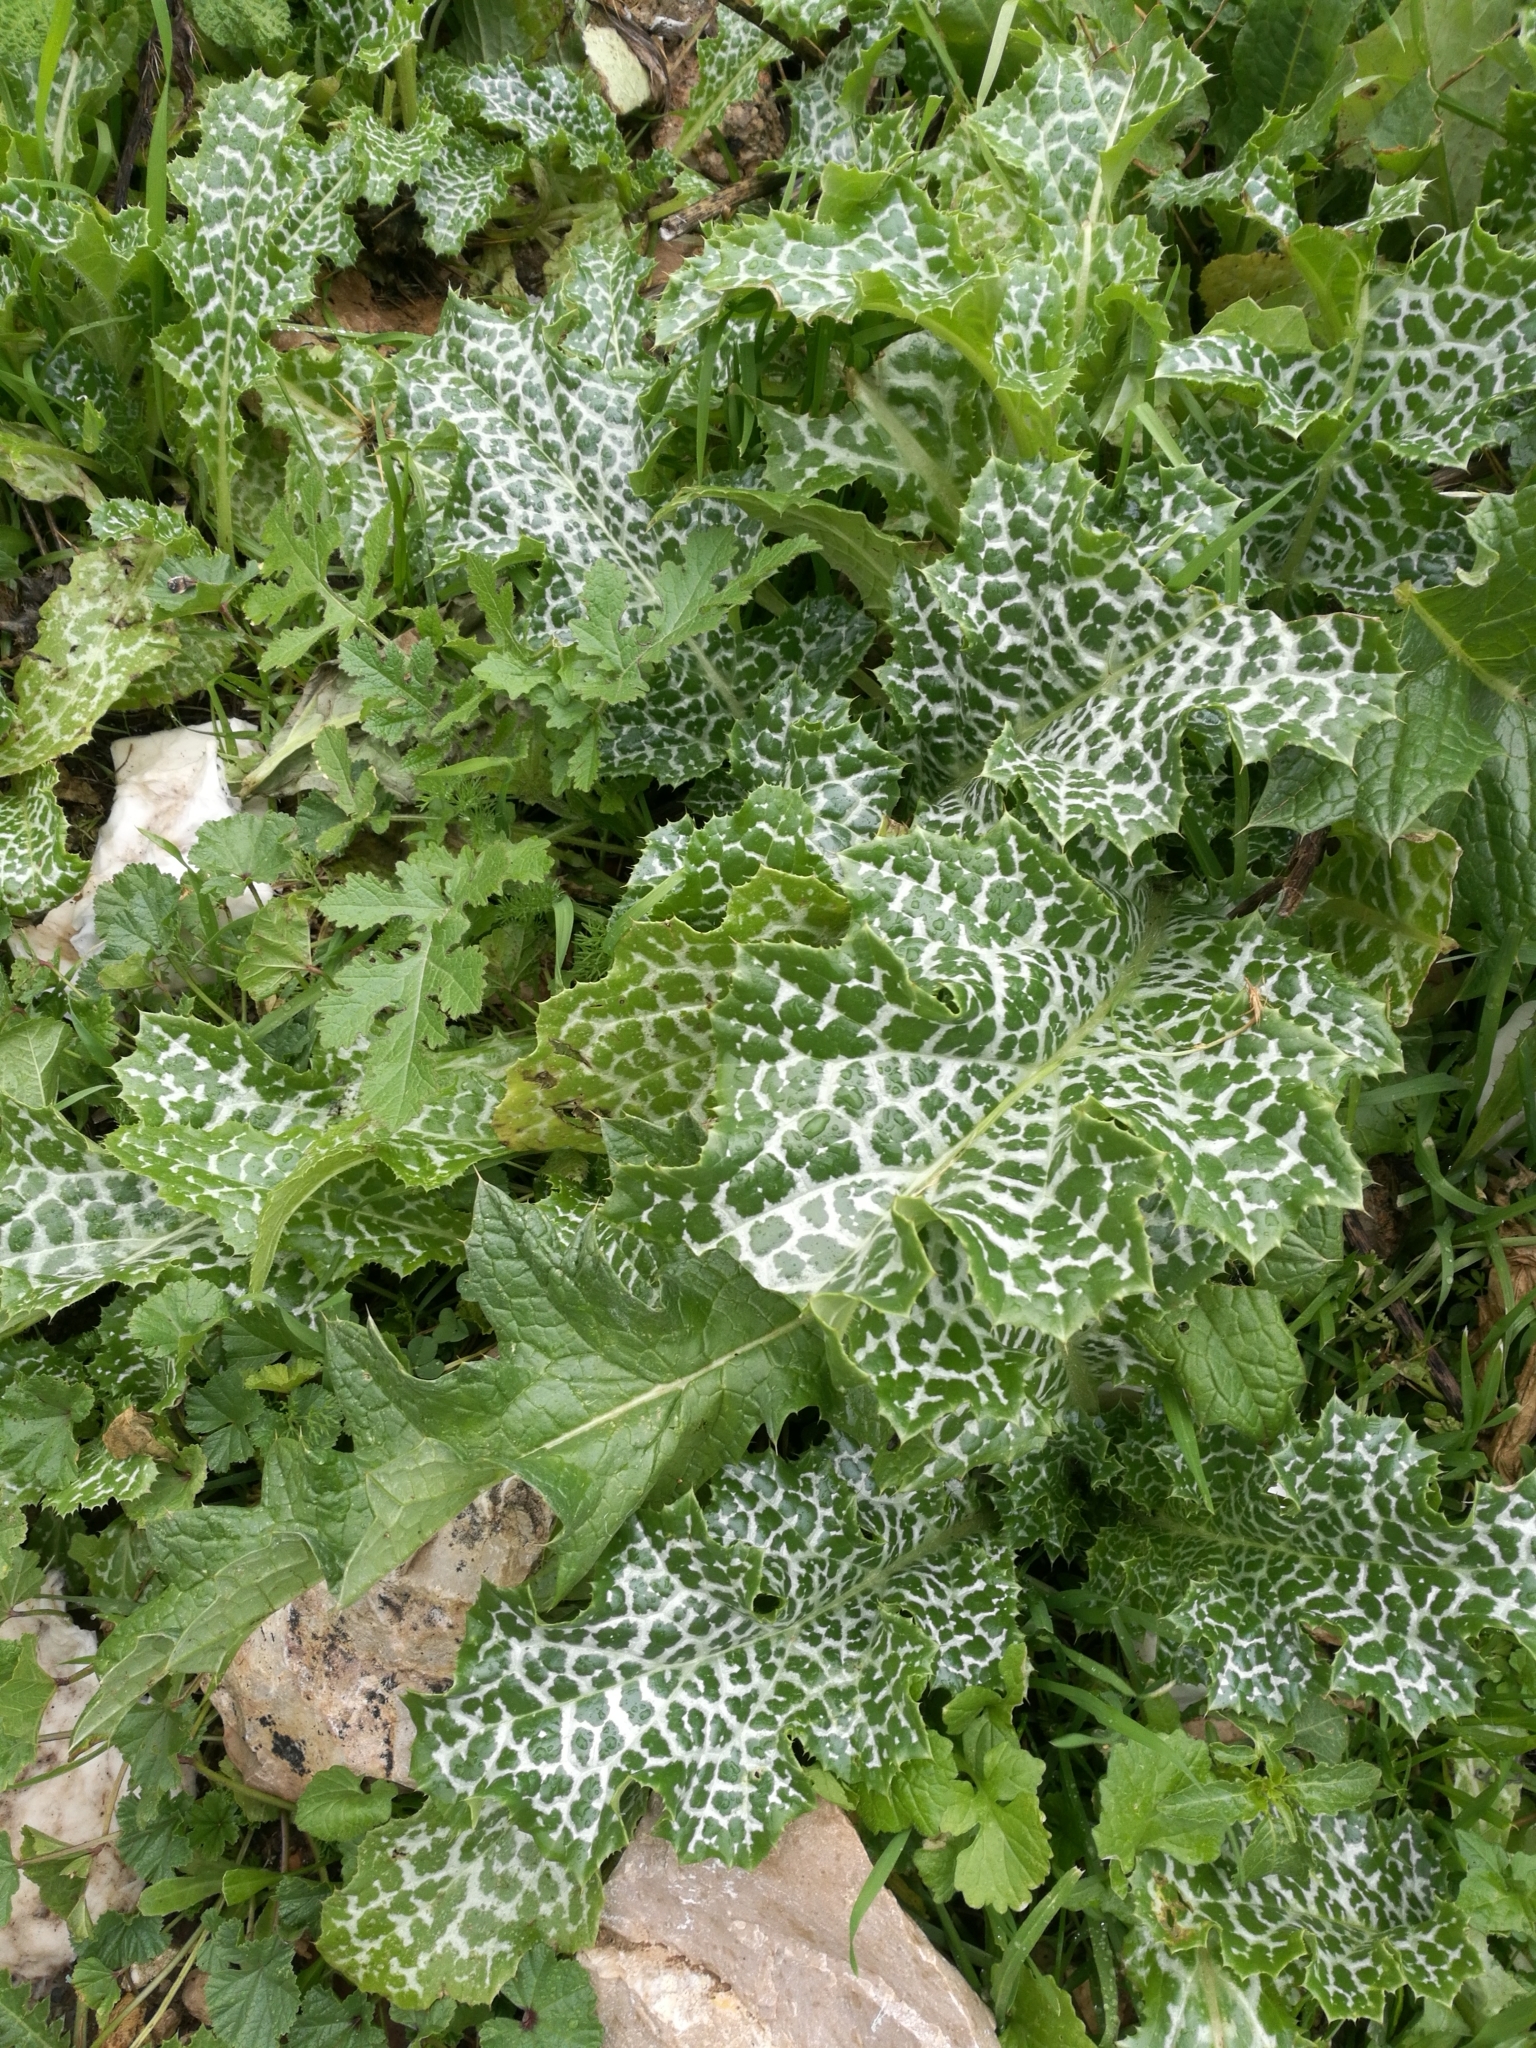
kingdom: Plantae
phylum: Tracheophyta
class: Magnoliopsida
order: Asterales
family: Asteraceae
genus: Silybum
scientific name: Silybum marianum
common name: Milk thistle
